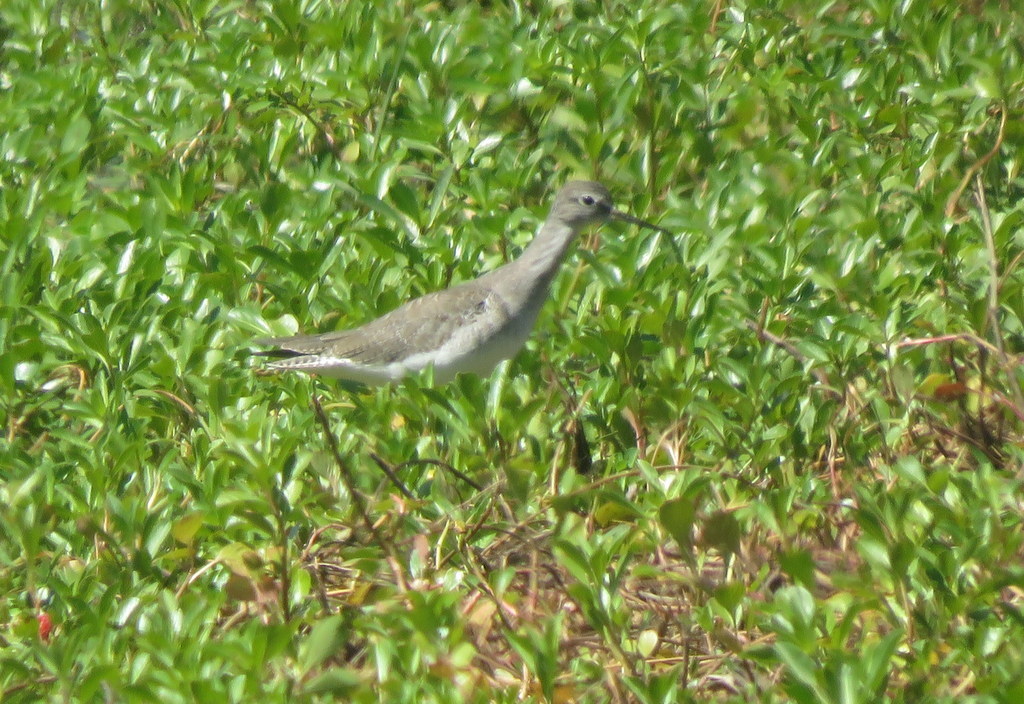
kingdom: Animalia
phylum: Chordata
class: Aves
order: Charadriiformes
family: Scolopacidae
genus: Tringa
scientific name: Tringa flavipes
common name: Lesser yellowlegs
